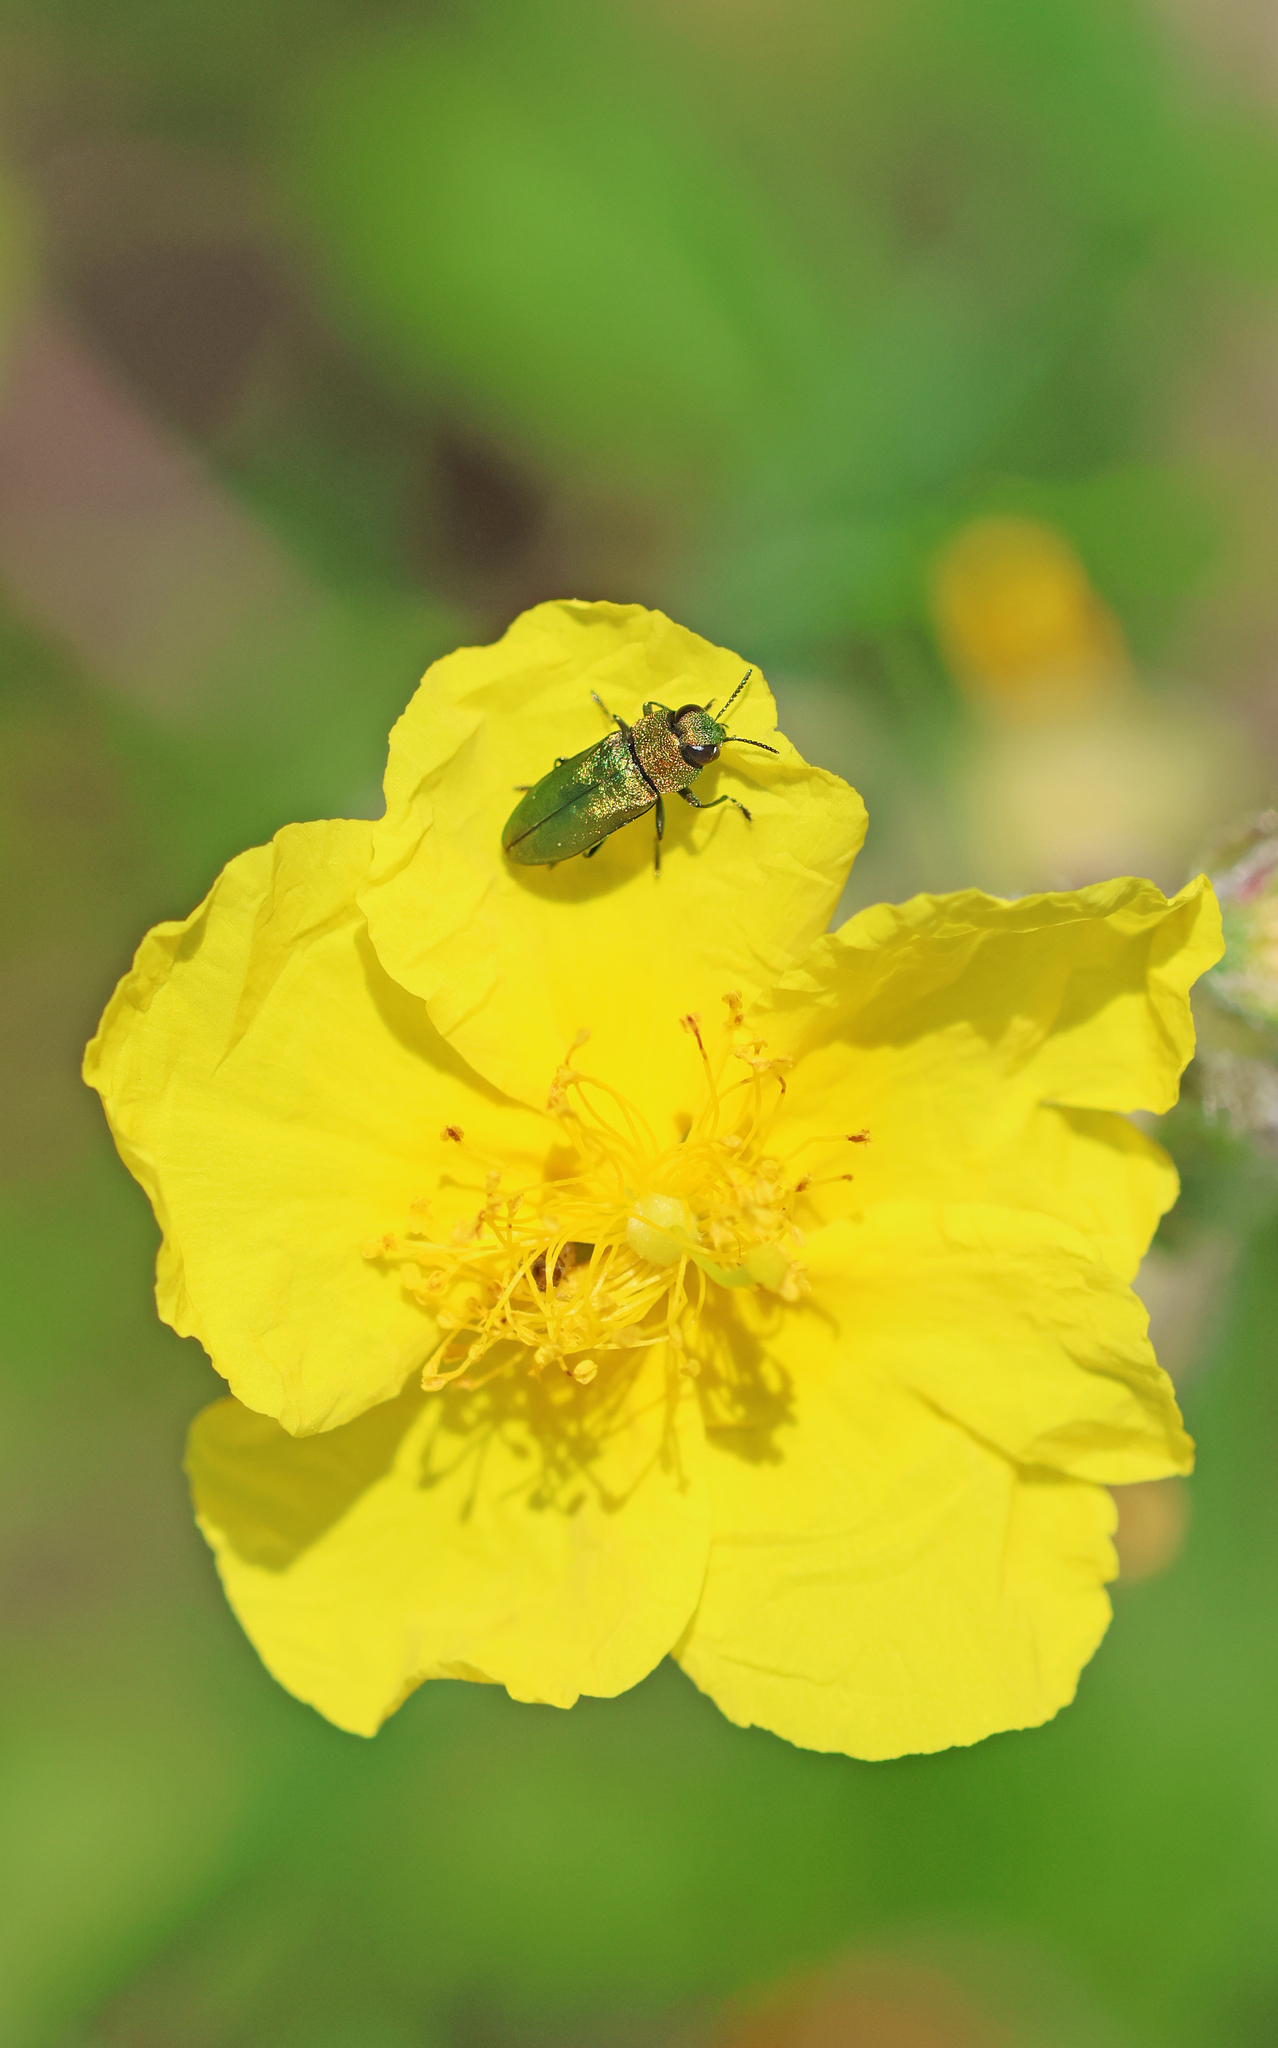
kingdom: Animalia
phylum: Arthropoda
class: Insecta
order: Coleoptera
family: Buprestidae
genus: Anthaxia
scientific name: Anthaxia nitidula
